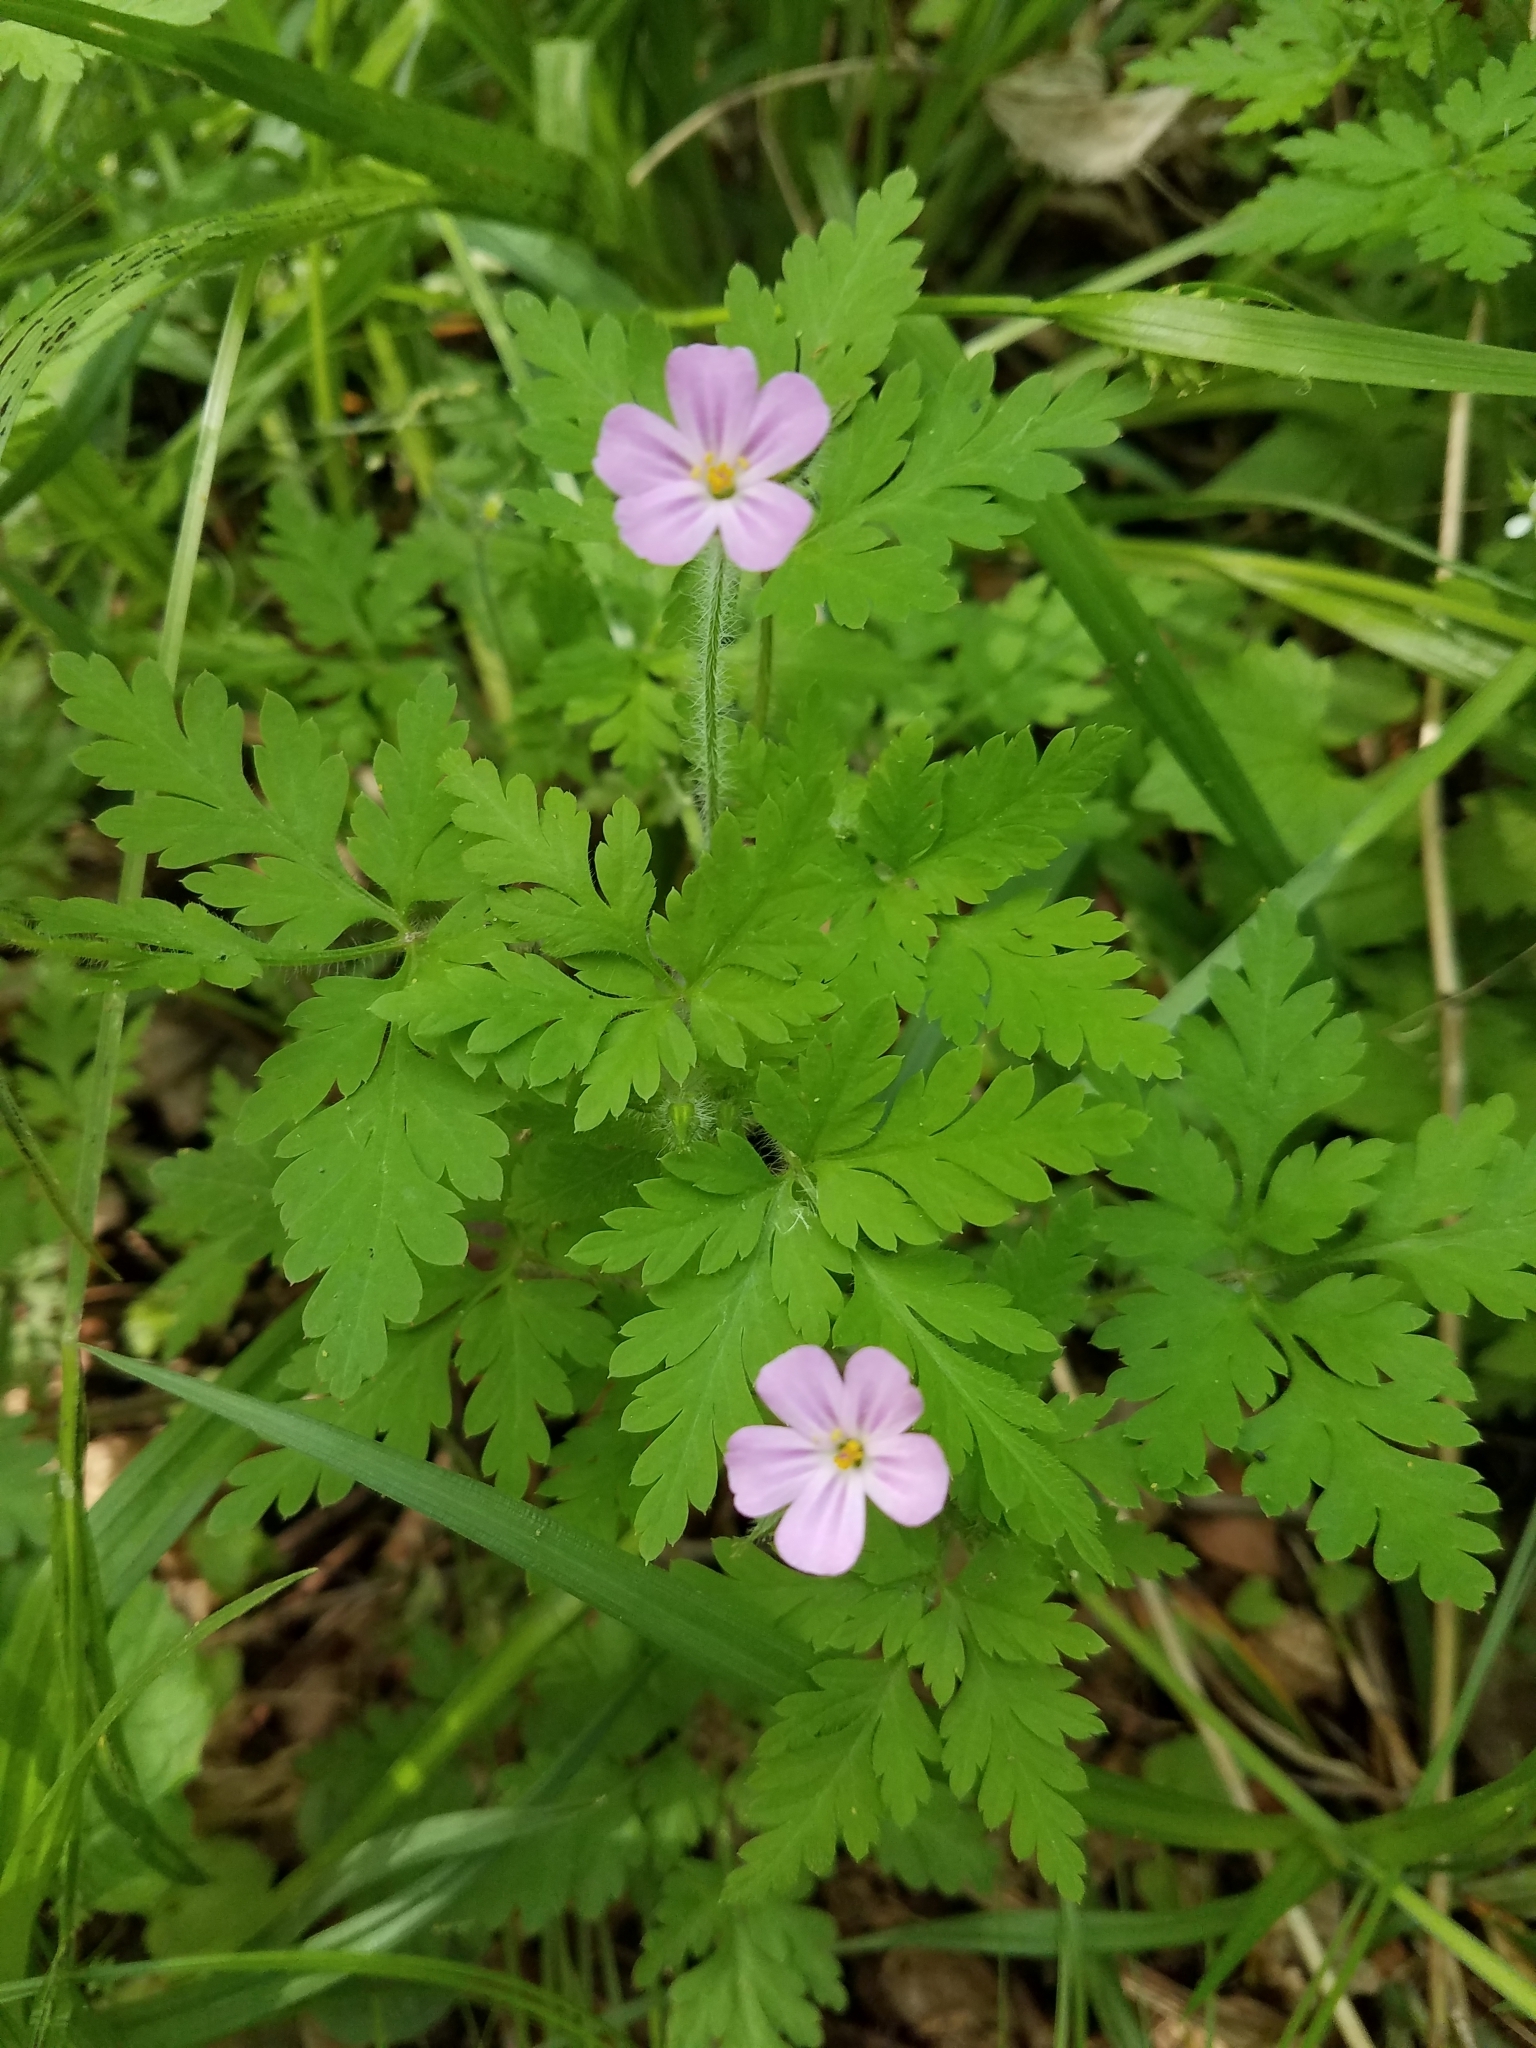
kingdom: Plantae
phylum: Tracheophyta
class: Magnoliopsida
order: Geraniales
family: Geraniaceae
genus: Geranium
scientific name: Geranium robertianum
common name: Herb-robert
